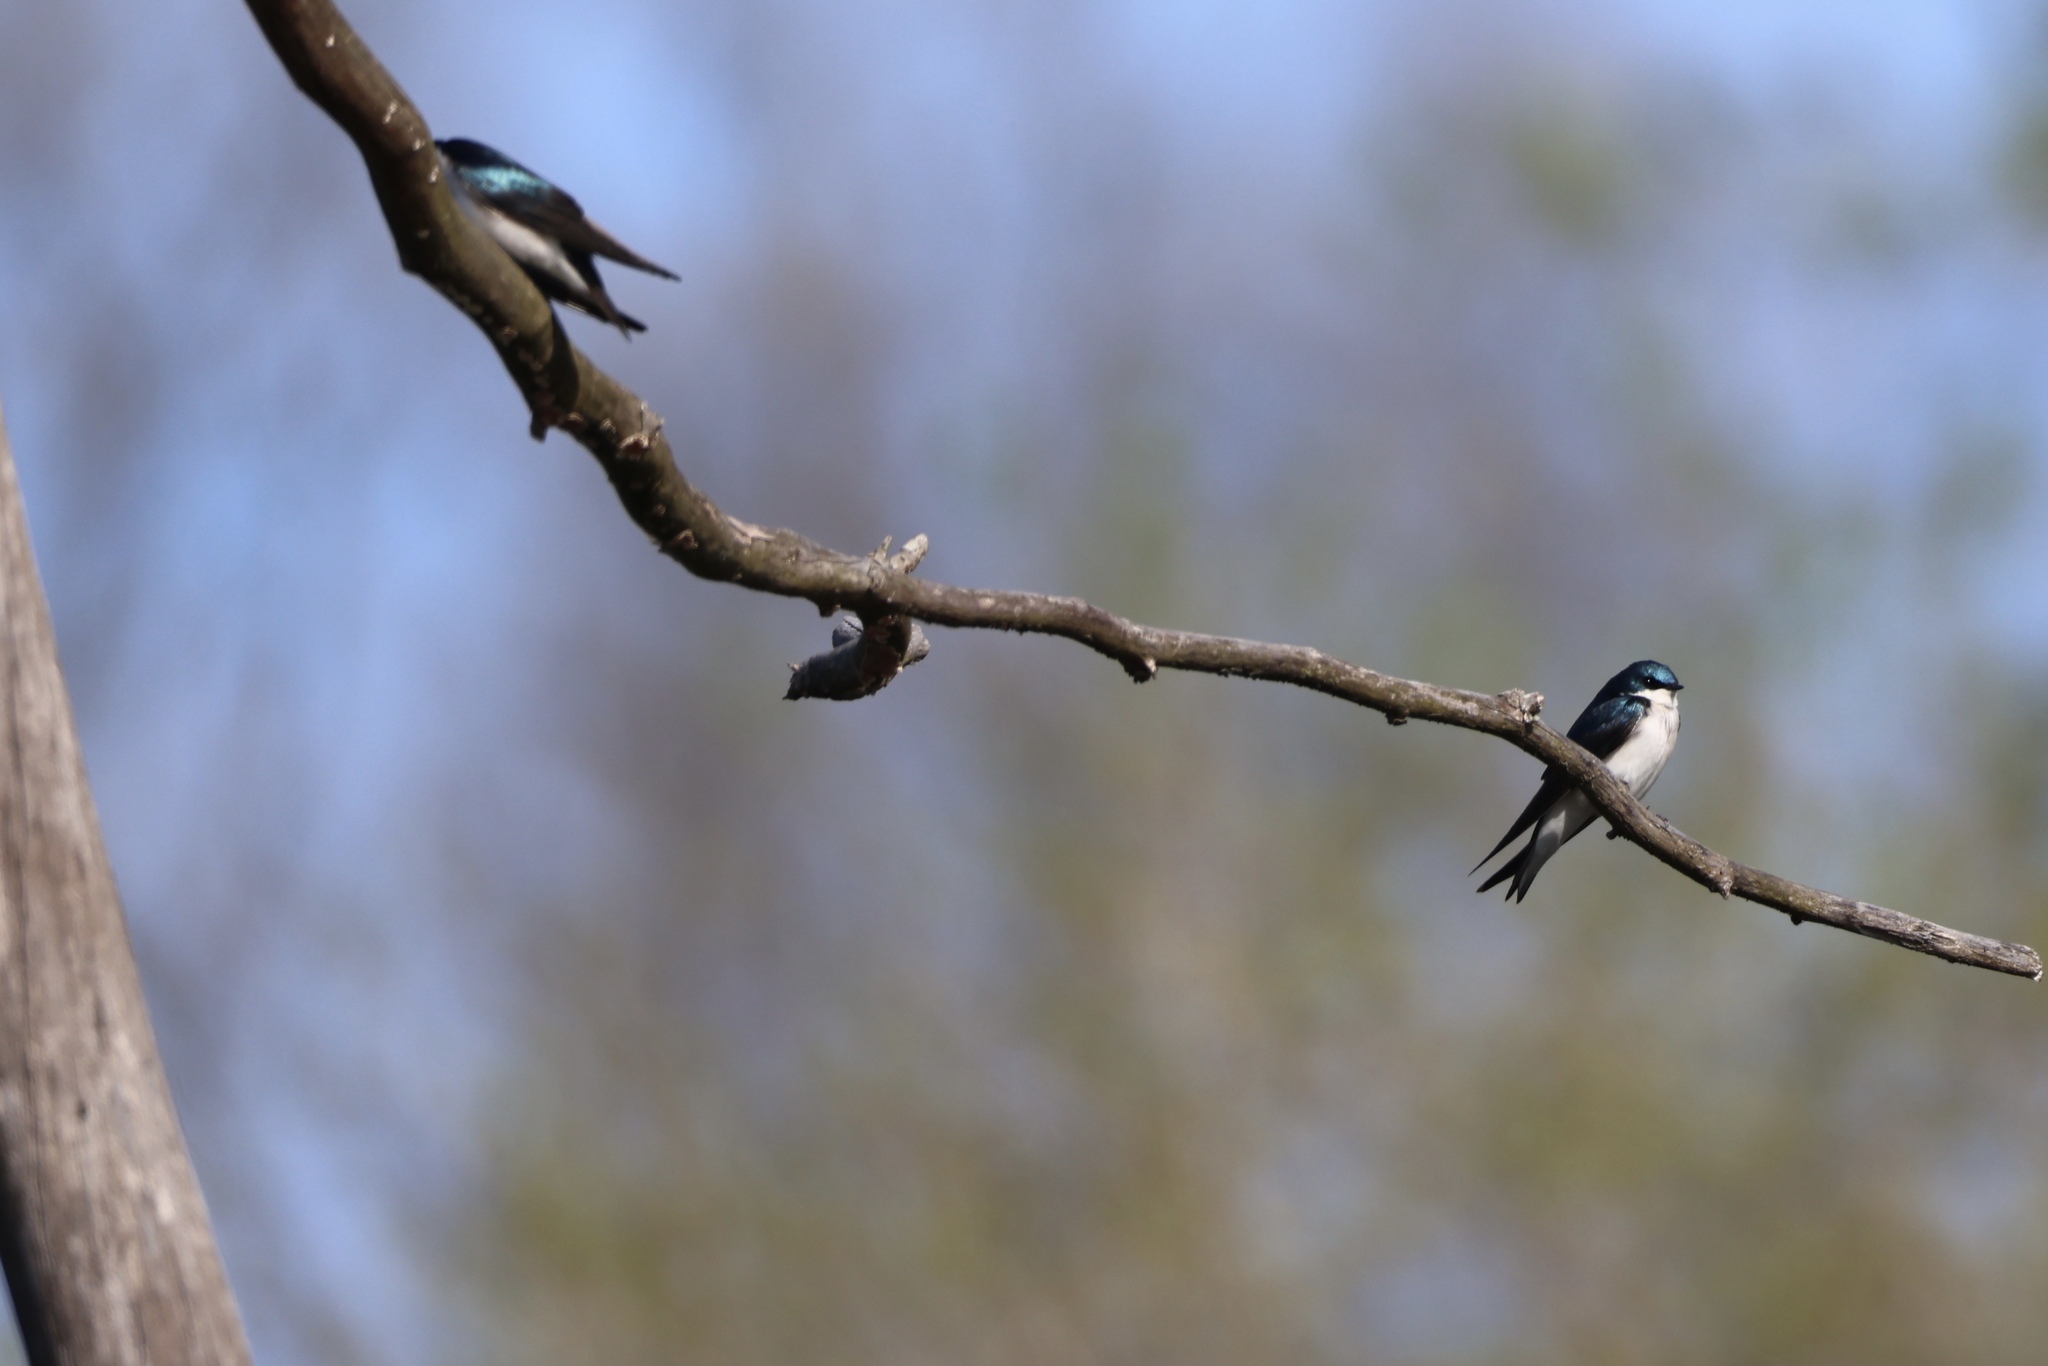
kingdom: Animalia
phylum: Chordata
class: Aves
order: Passeriformes
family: Hirundinidae
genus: Tachycineta
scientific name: Tachycineta bicolor
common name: Tree swallow
